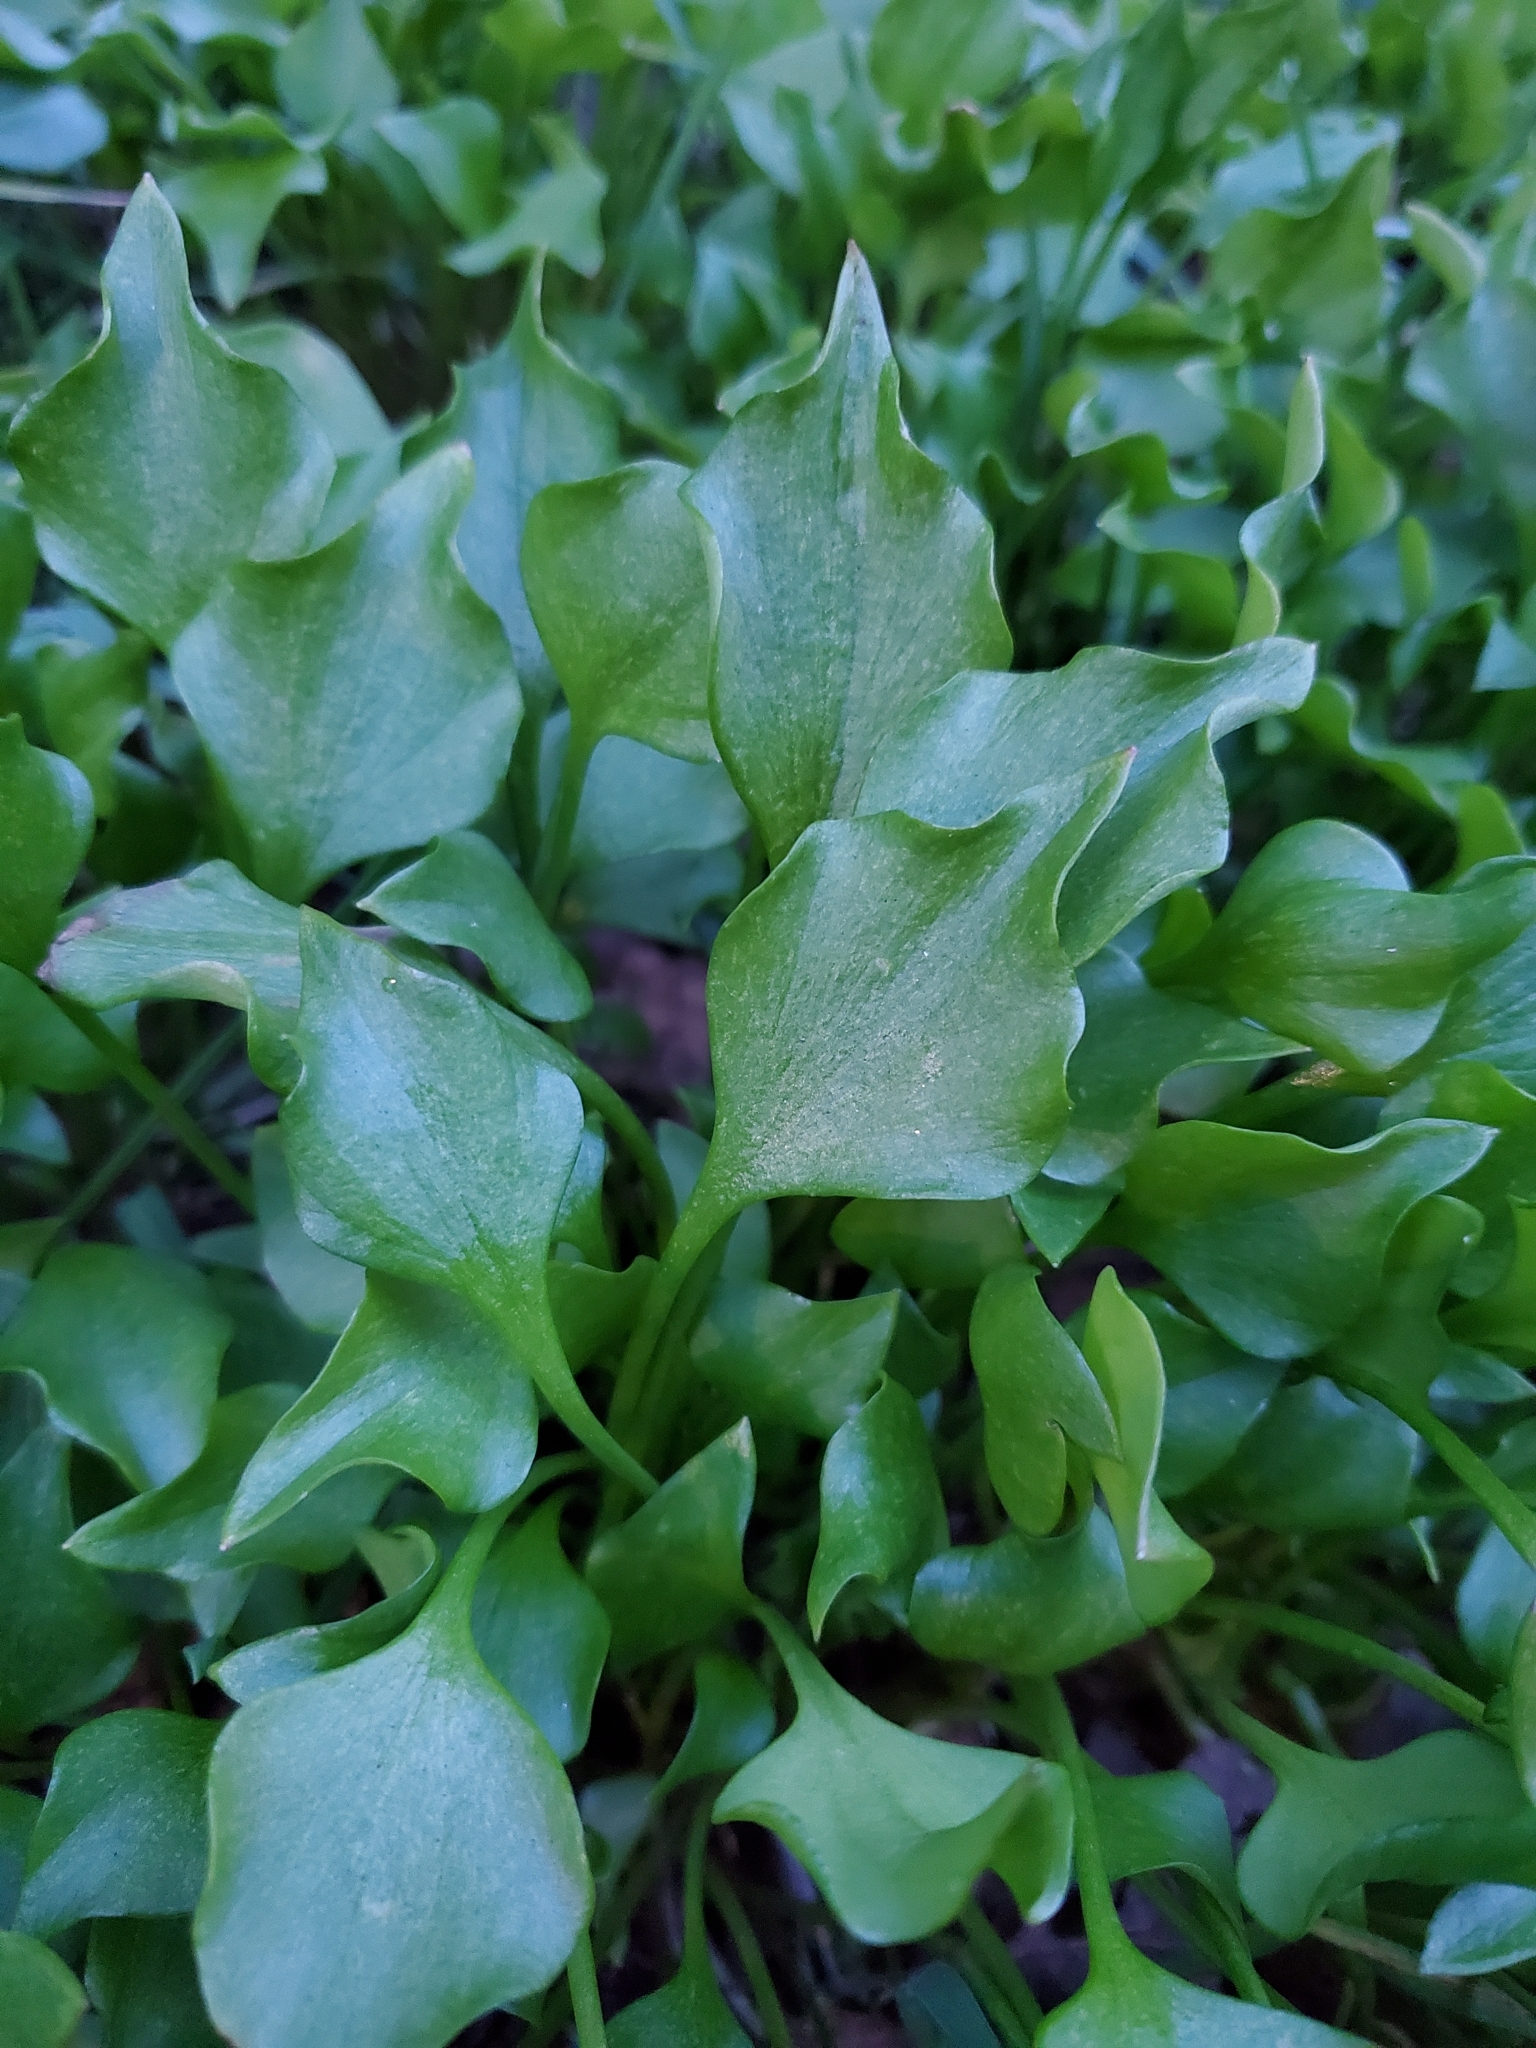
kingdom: Plantae
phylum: Tracheophyta
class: Magnoliopsida
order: Caryophyllales
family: Montiaceae
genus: Claytonia
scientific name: Claytonia sibirica
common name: Pink purslane
